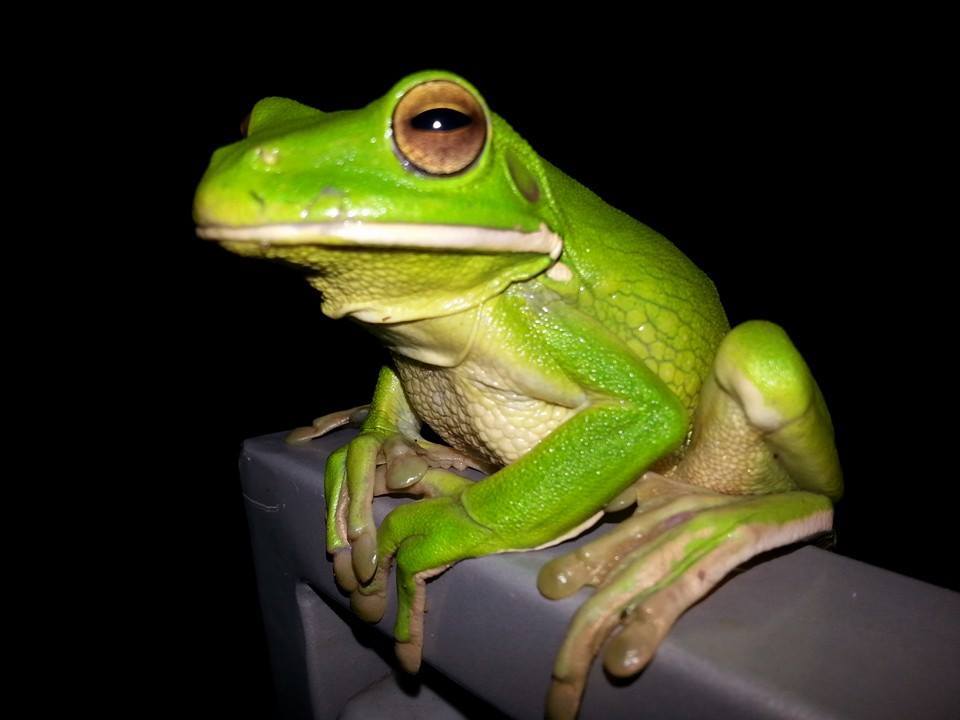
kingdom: Animalia
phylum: Chordata
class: Amphibia
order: Anura
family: Pelodryadidae
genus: Nyctimystes
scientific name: Nyctimystes infrafrenatus
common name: Australian giant treefrog
